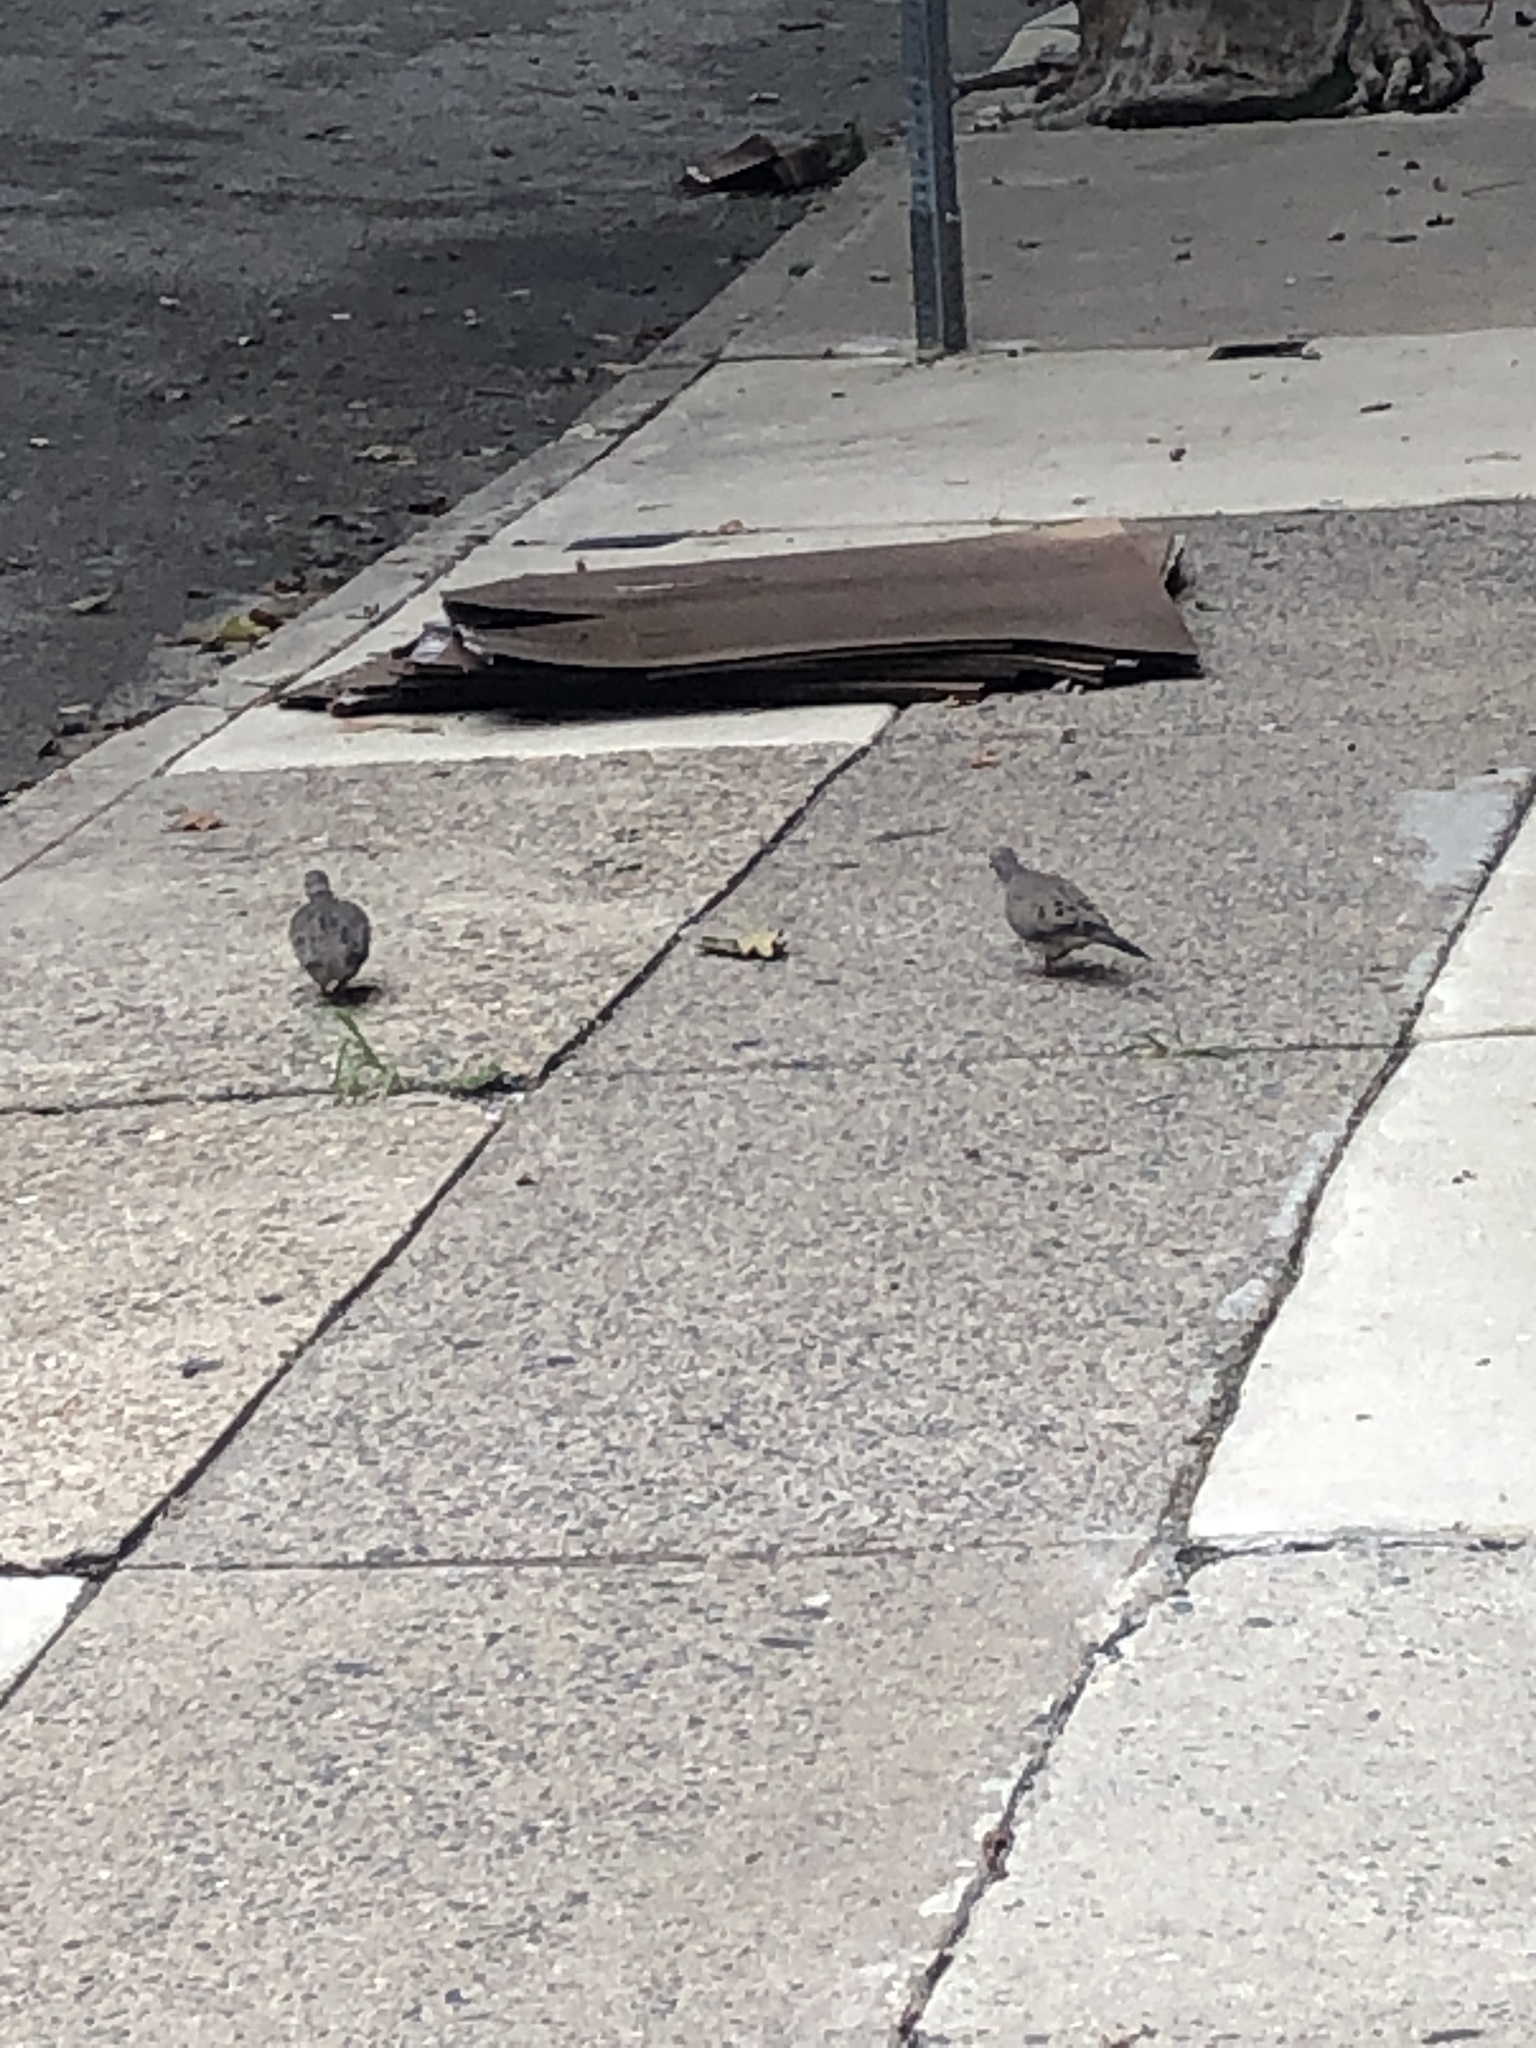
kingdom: Animalia
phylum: Chordata
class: Aves
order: Columbiformes
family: Columbidae
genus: Zenaida
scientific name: Zenaida macroura
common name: Mourning dove
